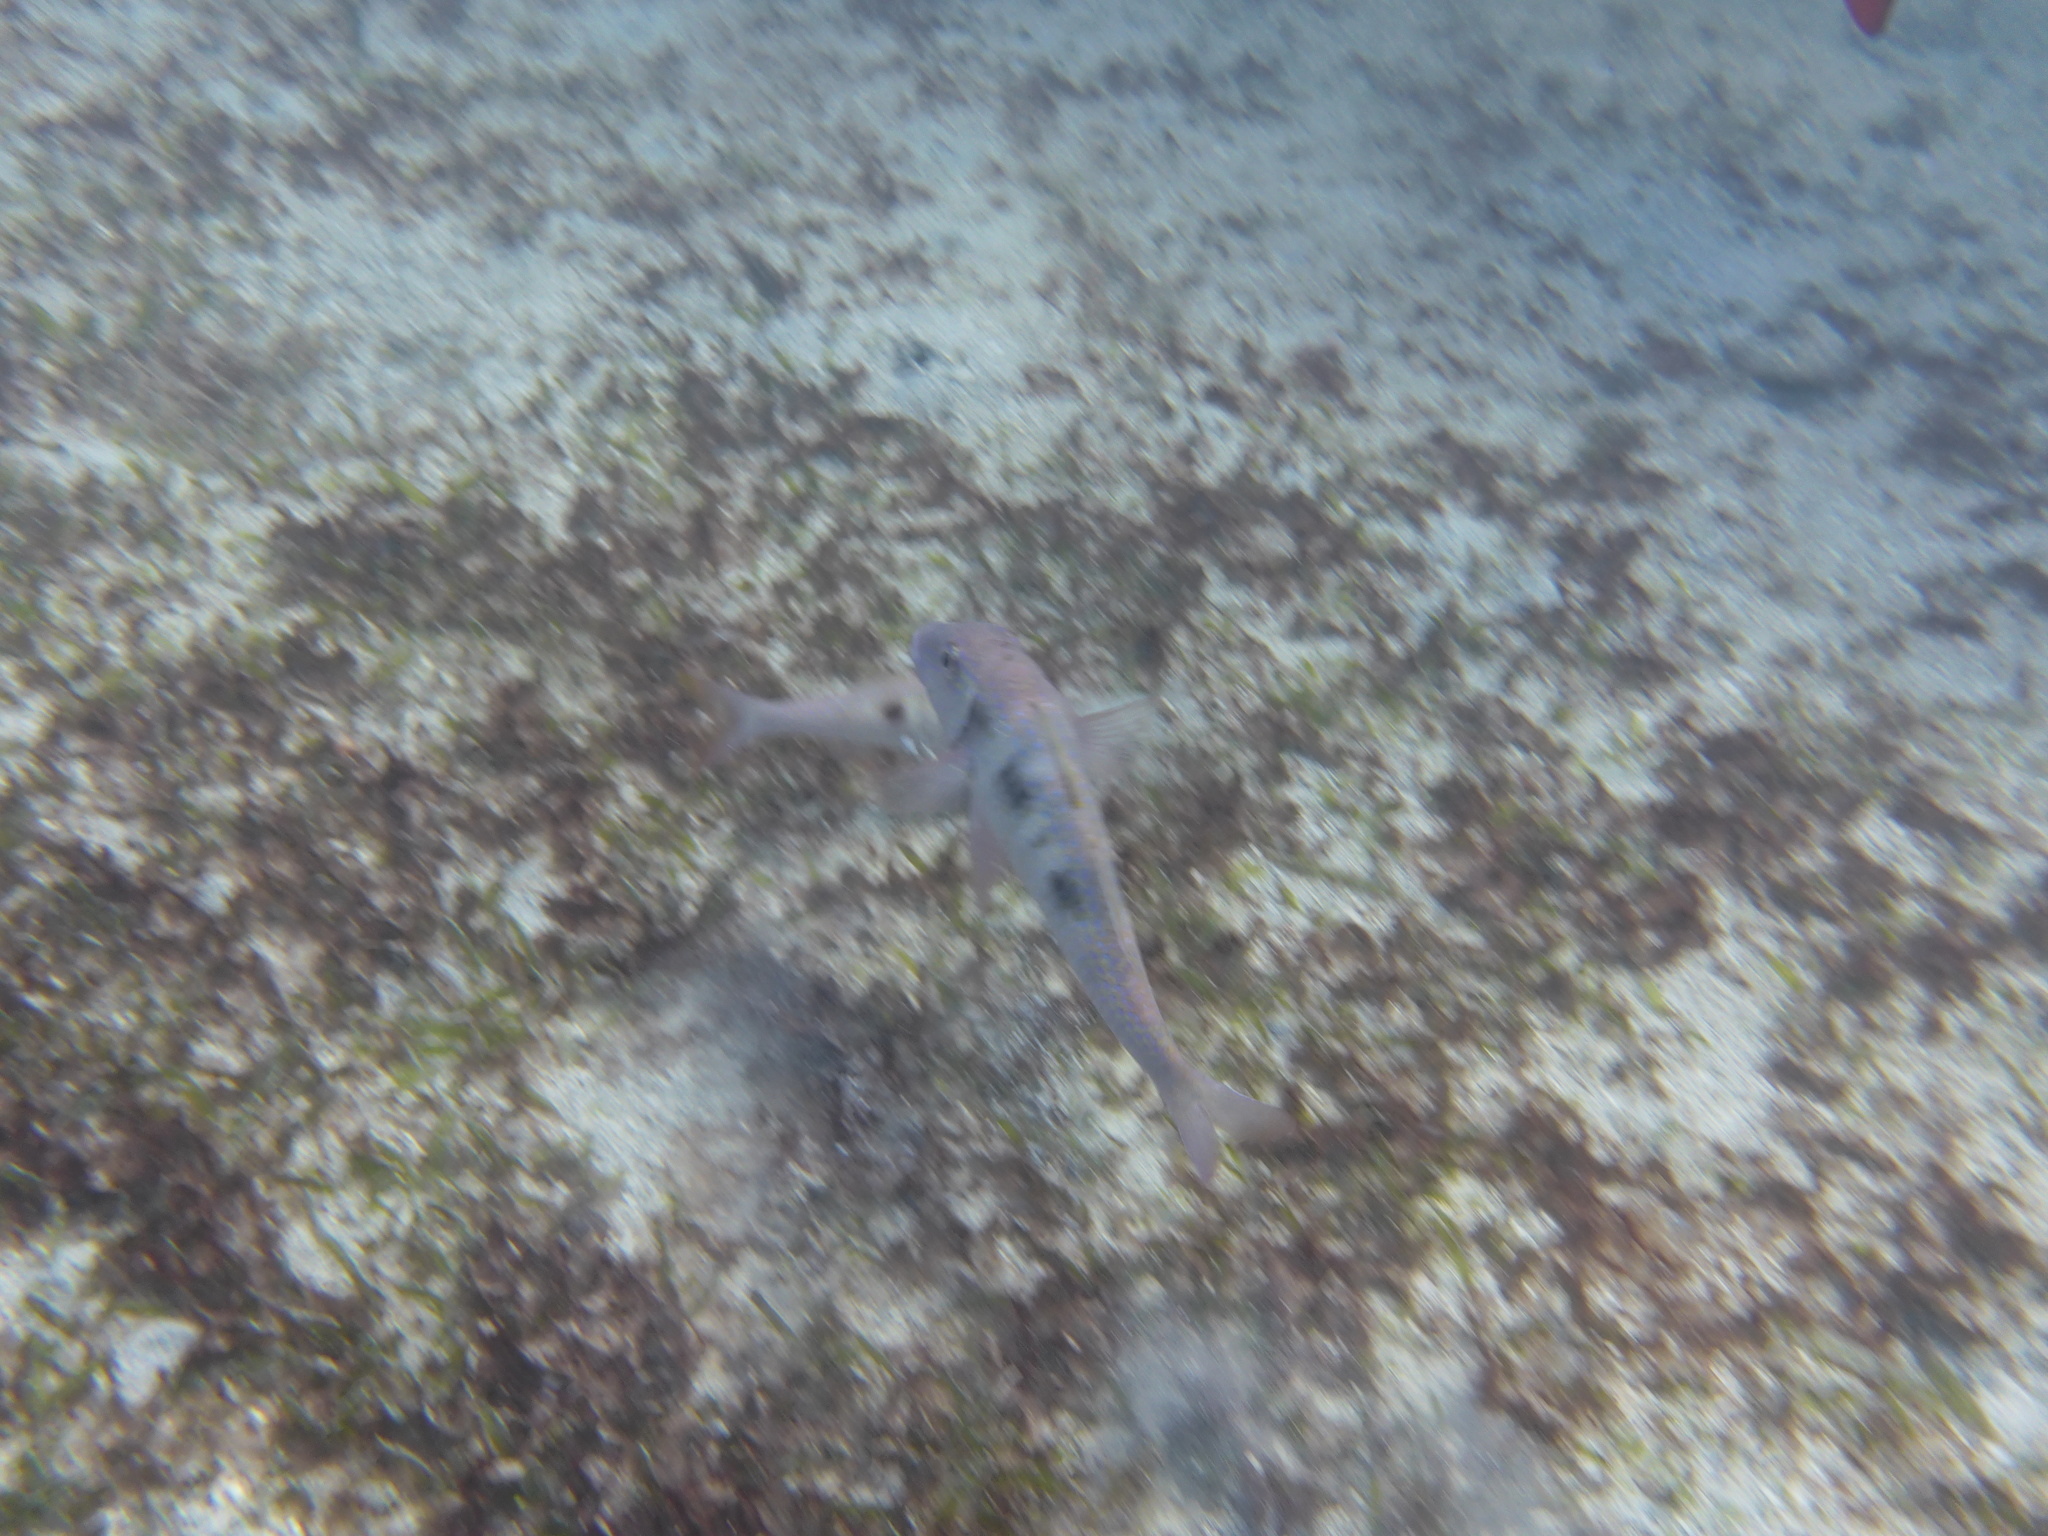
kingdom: Animalia
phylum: Chordata
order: Perciformes
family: Mullidae
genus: Pseudupeneus
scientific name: Pseudupeneus maculatus
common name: Spotted goatfish
